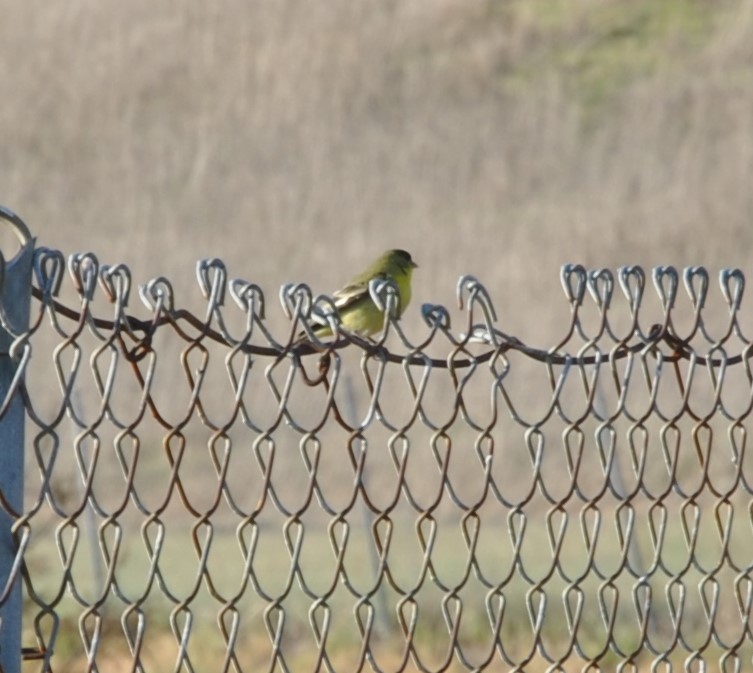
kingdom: Animalia
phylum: Chordata
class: Aves
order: Passeriformes
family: Fringillidae
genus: Spinus
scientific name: Spinus psaltria
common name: Lesser goldfinch
